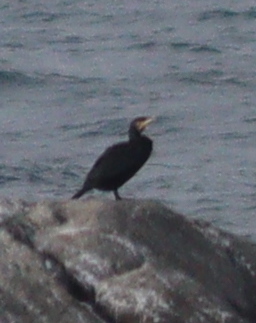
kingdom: Animalia
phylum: Chordata
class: Aves
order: Suliformes
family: Phalacrocoracidae
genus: Phalacrocorax
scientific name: Phalacrocorax carbo
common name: Great cormorant
